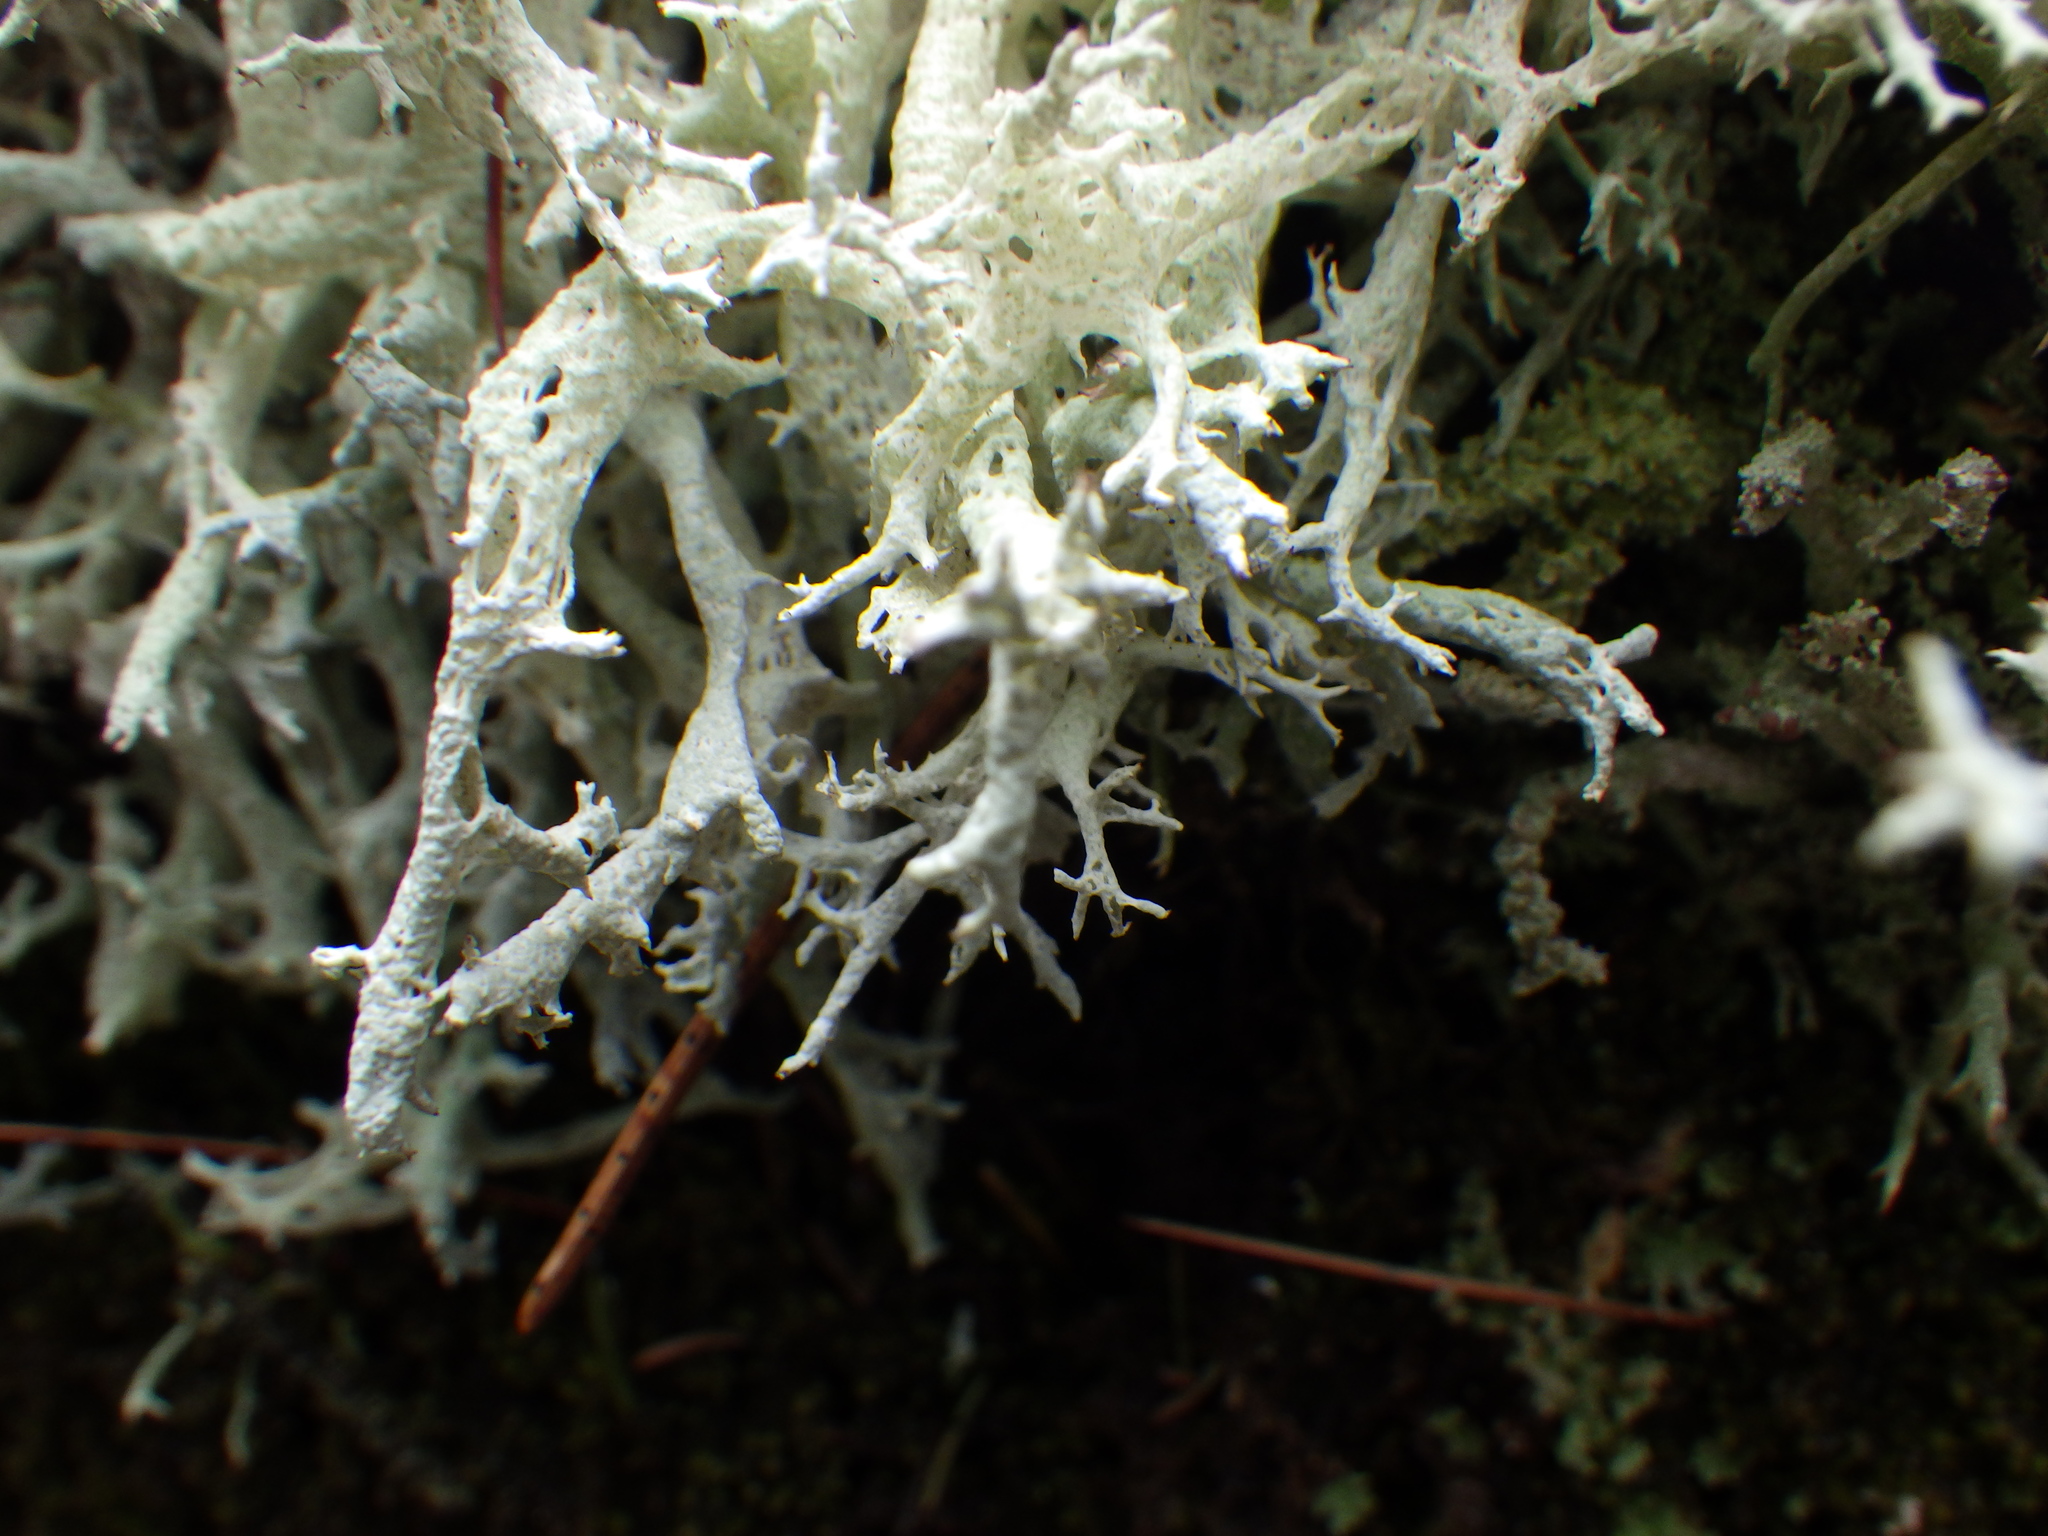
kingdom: Fungi
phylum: Ascomycota
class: Lecanoromycetes
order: Lecanorales
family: Cladoniaceae
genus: Cladonia
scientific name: Cladonia boryi
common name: Fishnet cladonia
